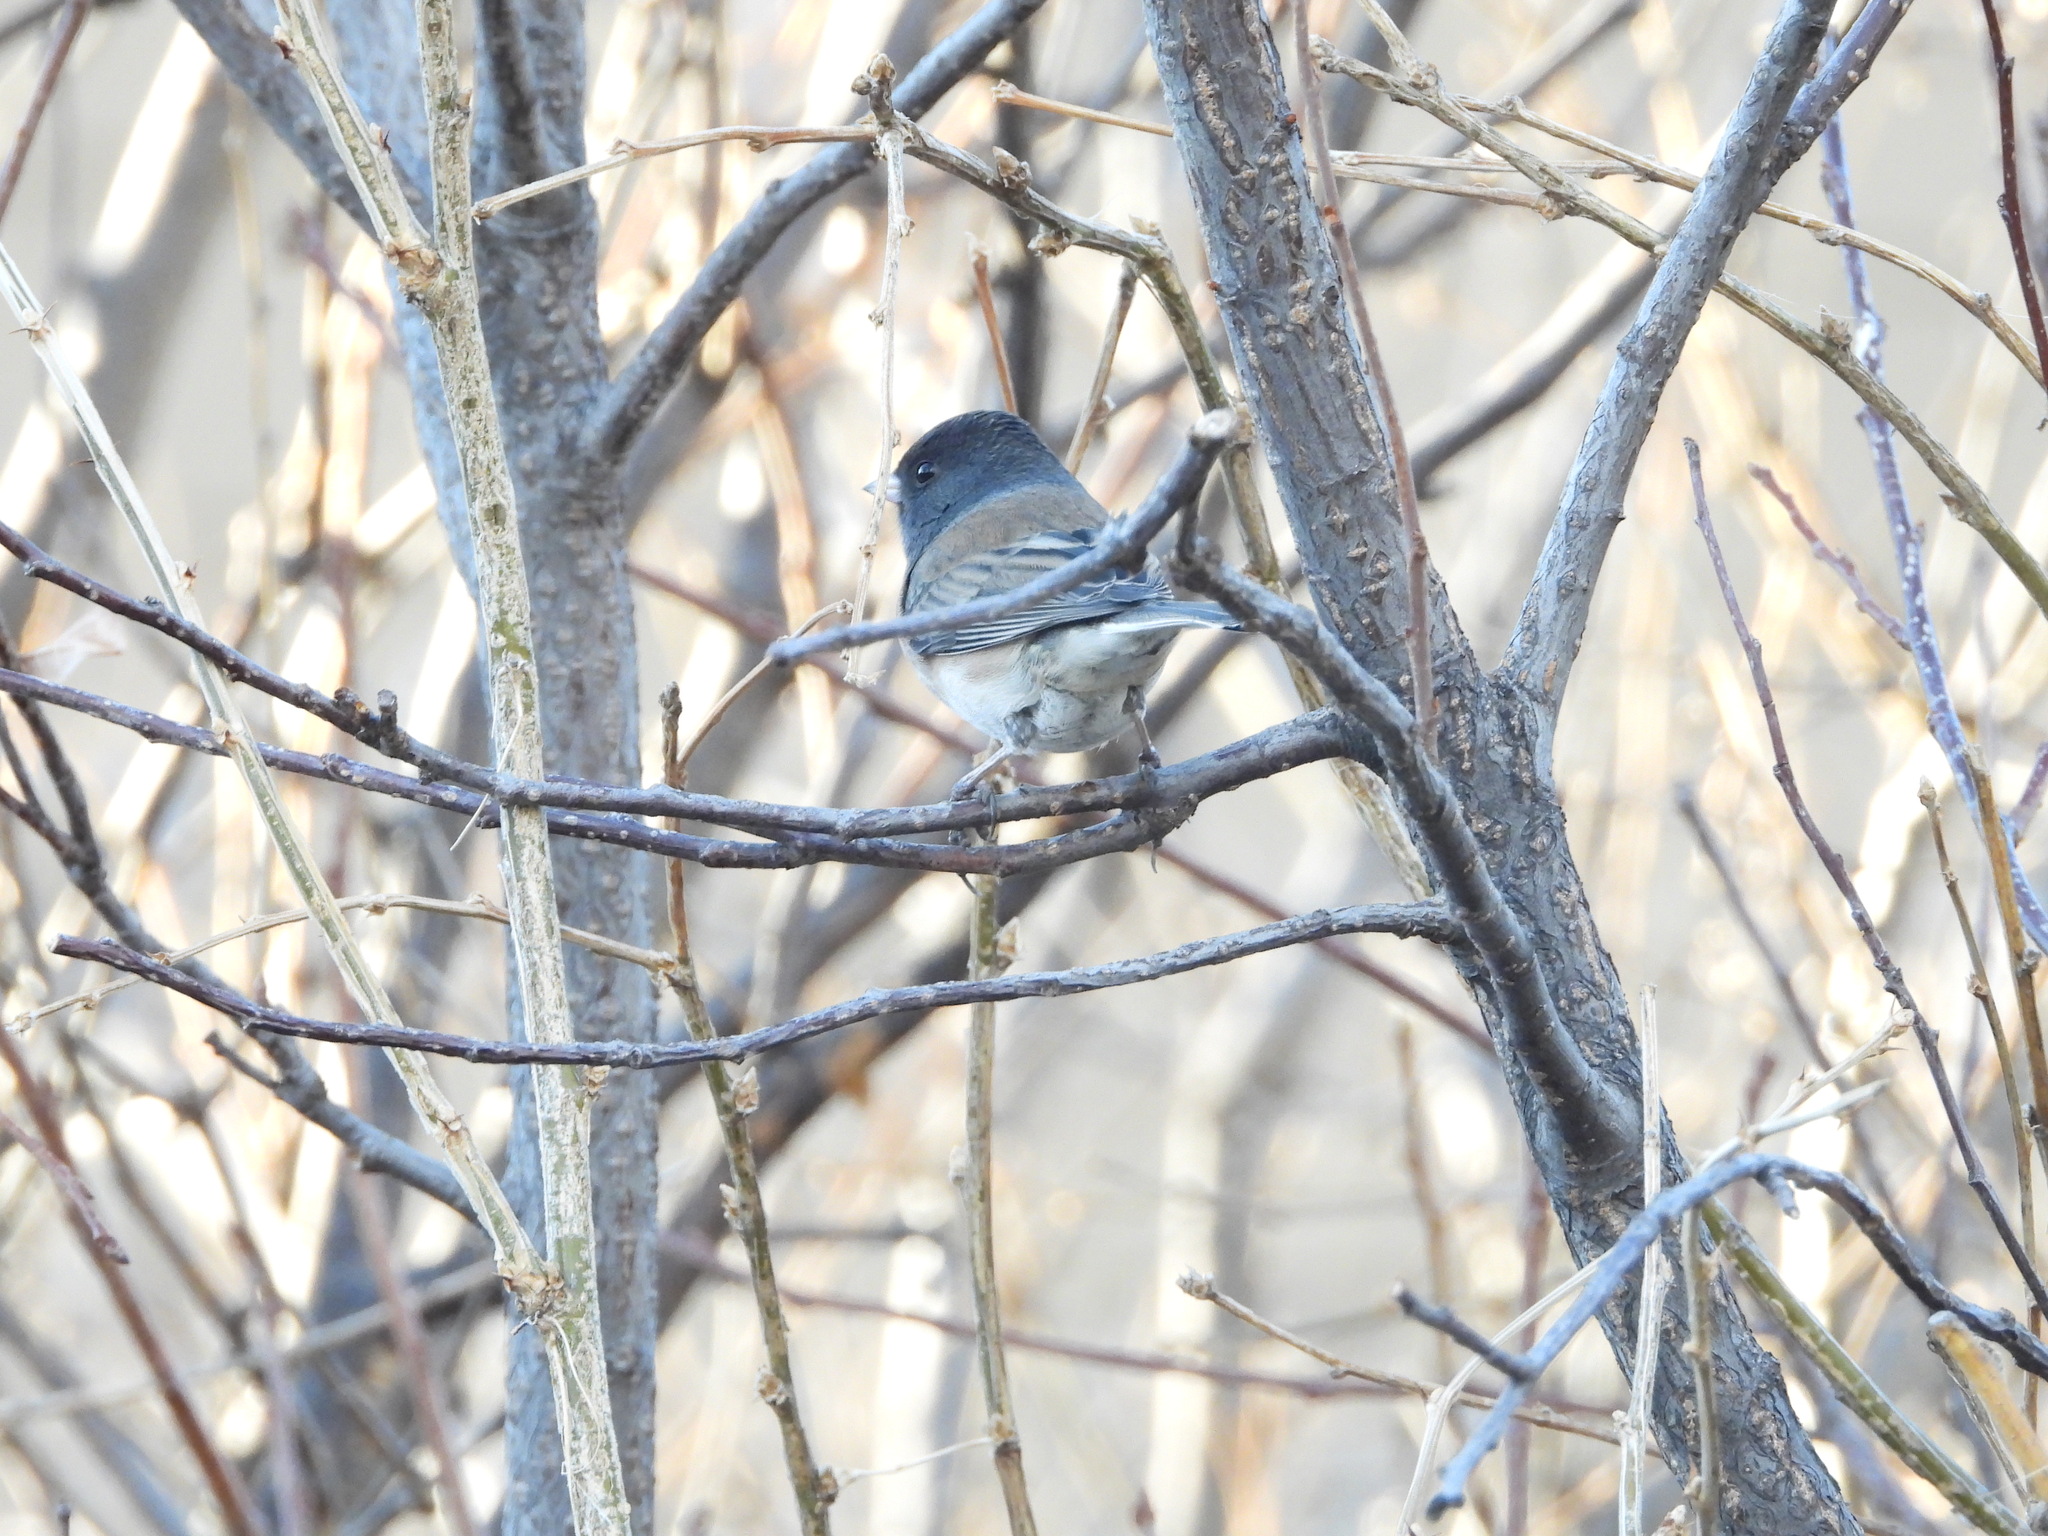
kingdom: Animalia
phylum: Chordata
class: Aves
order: Passeriformes
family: Passerellidae
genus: Junco
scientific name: Junco hyemalis
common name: Dark-eyed junco
